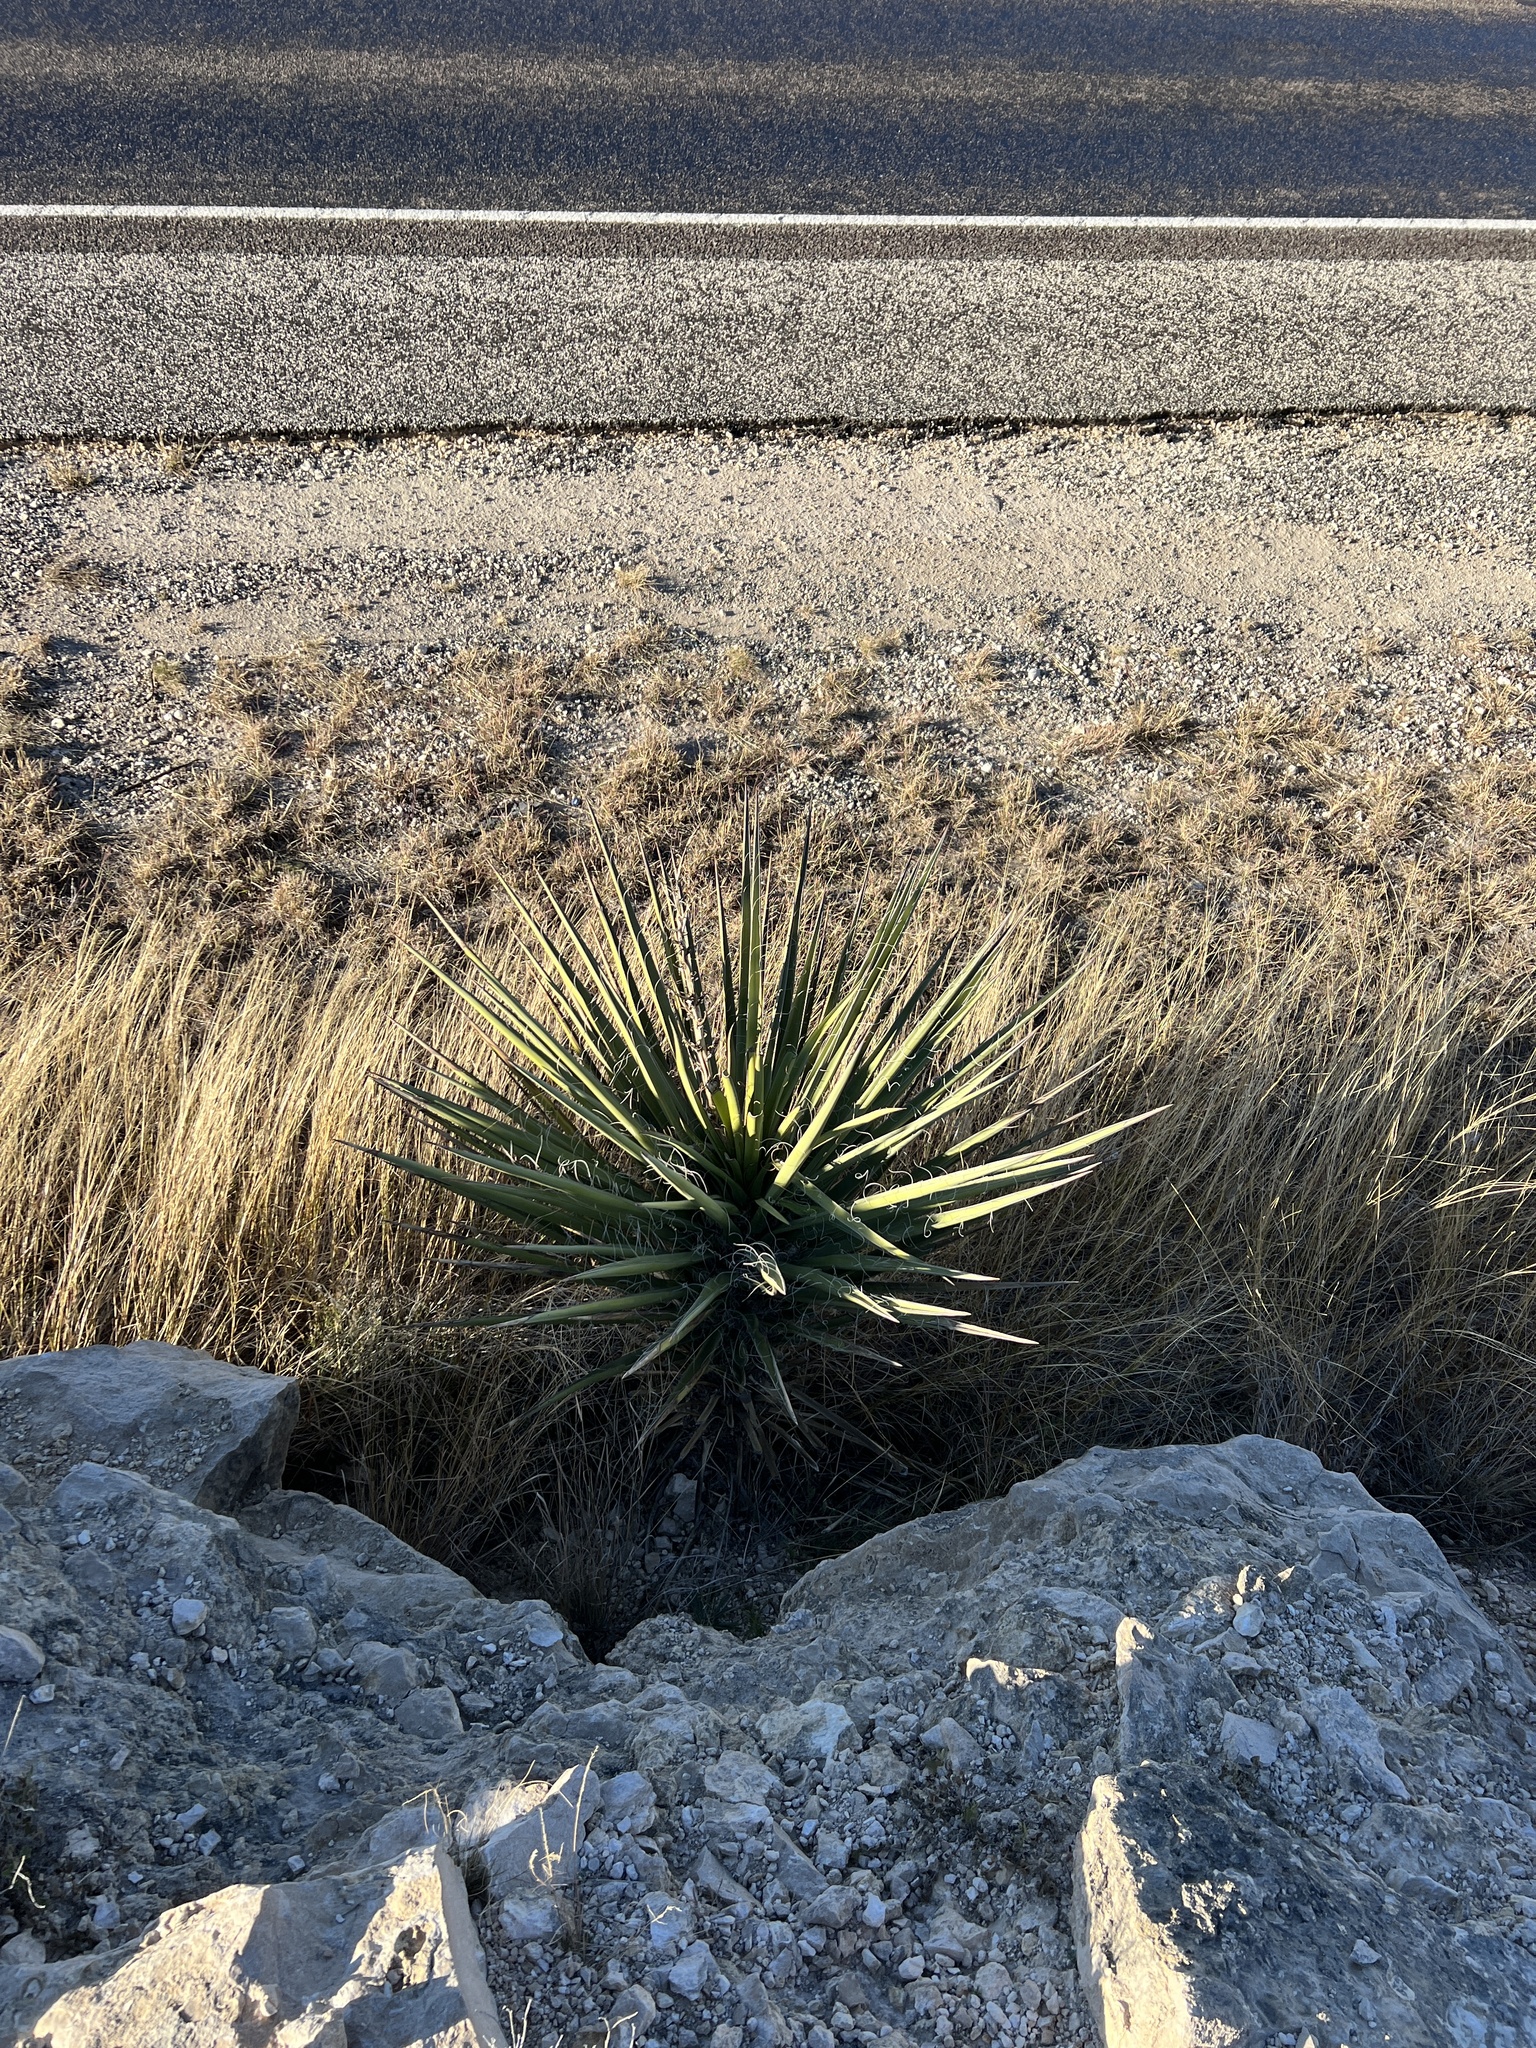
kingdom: Plantae
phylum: Tracheophyta
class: Liliopsida
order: Asparagales
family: Asparagaceae
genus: Yucca
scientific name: Yucca treculiana
